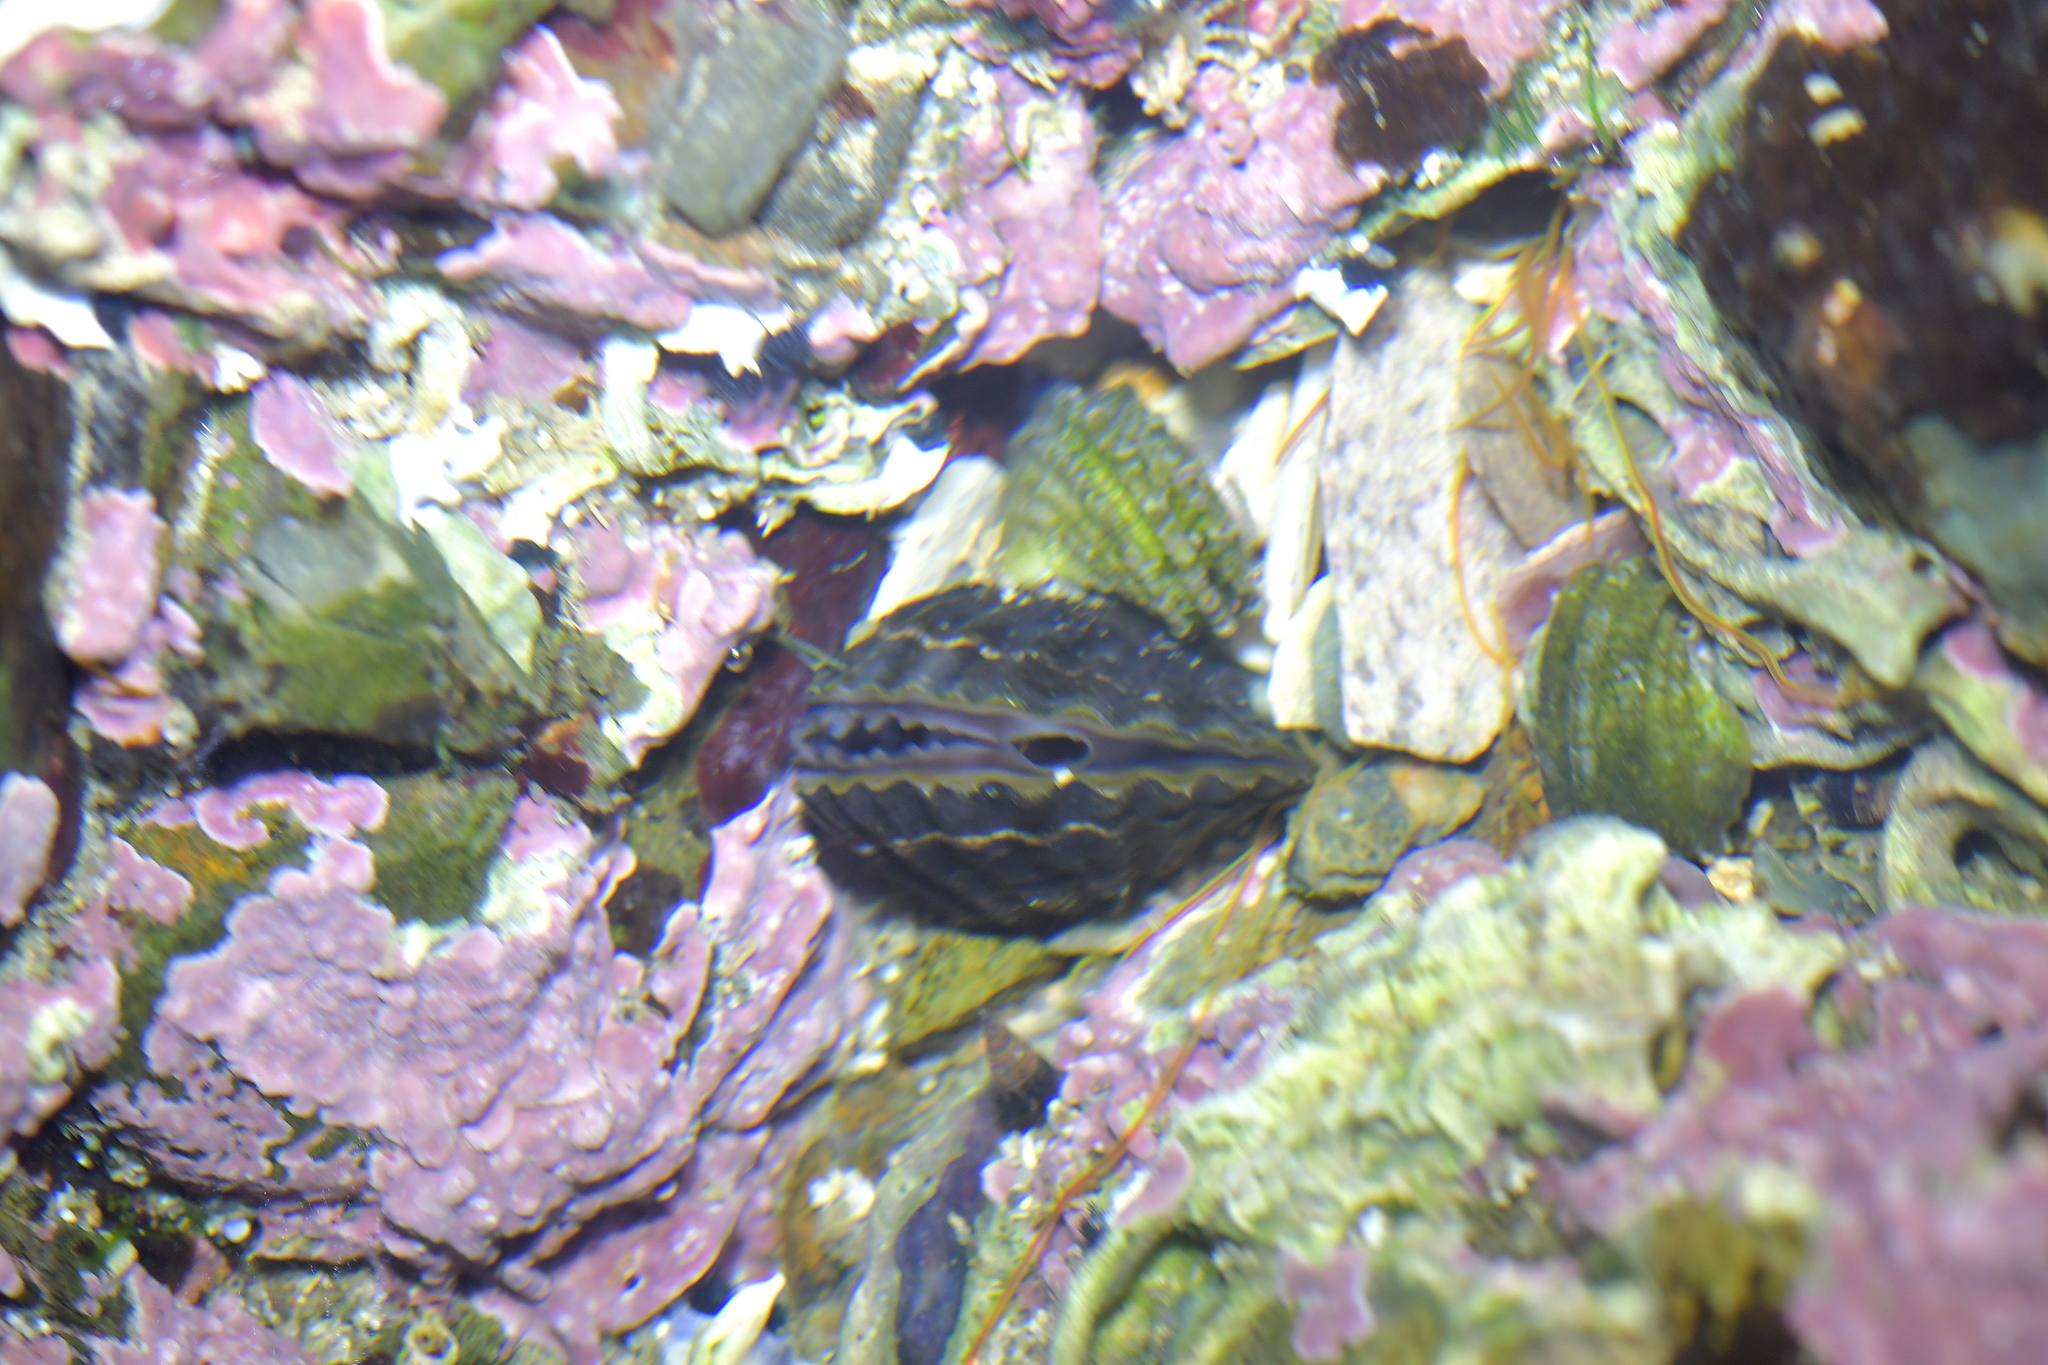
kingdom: Animalia
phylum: Mollusca
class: Bivalvia
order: Mytilida
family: Mytilidae
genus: Aulacomya
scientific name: Aulacomya maoriana
